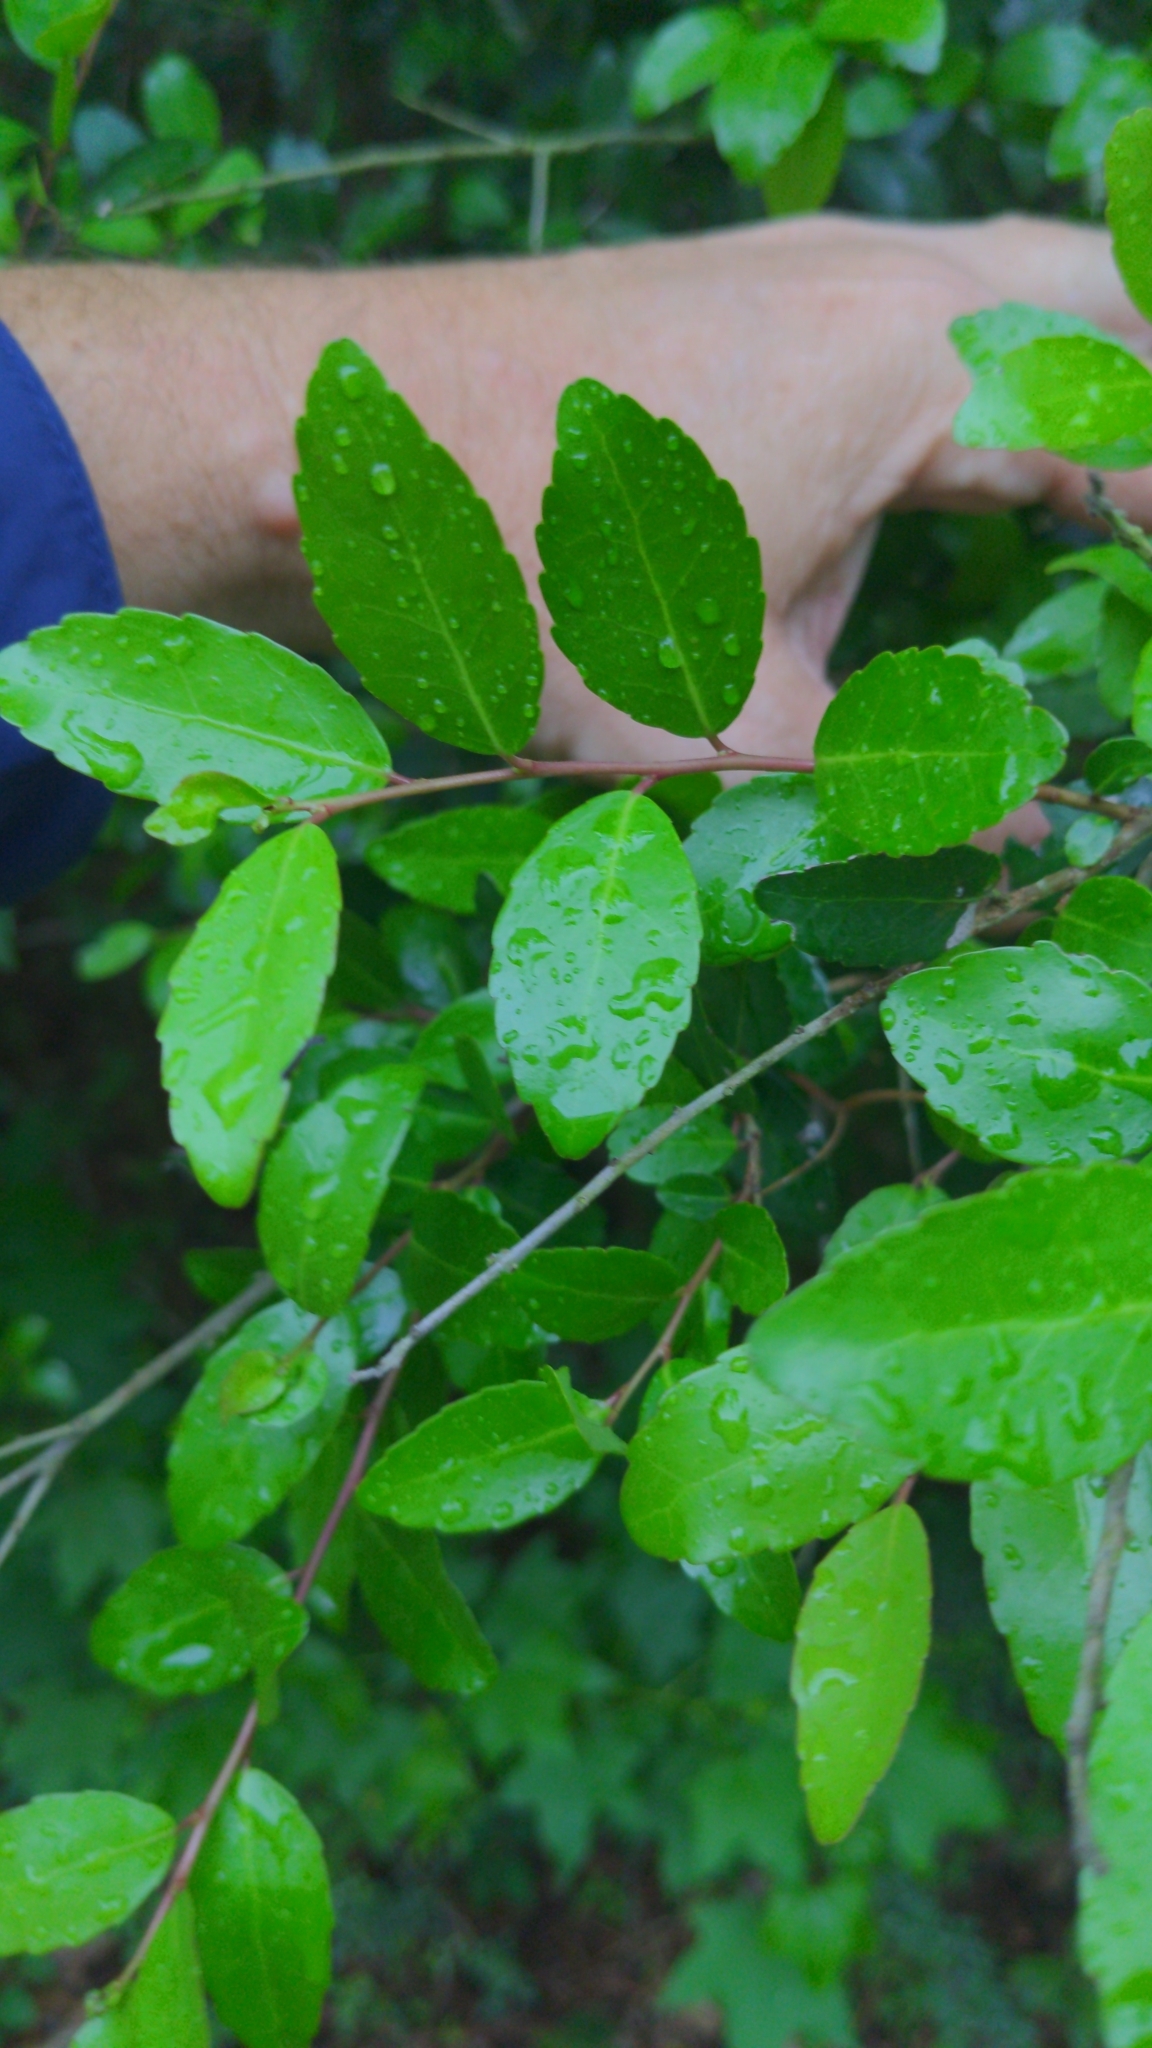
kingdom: Plantae
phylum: Tracheophyta
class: Magnoliopsida
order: Aquifoliales
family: Aquifoliaceae
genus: Ilex
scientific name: Ilex vomitoria
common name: Yaupon holly
